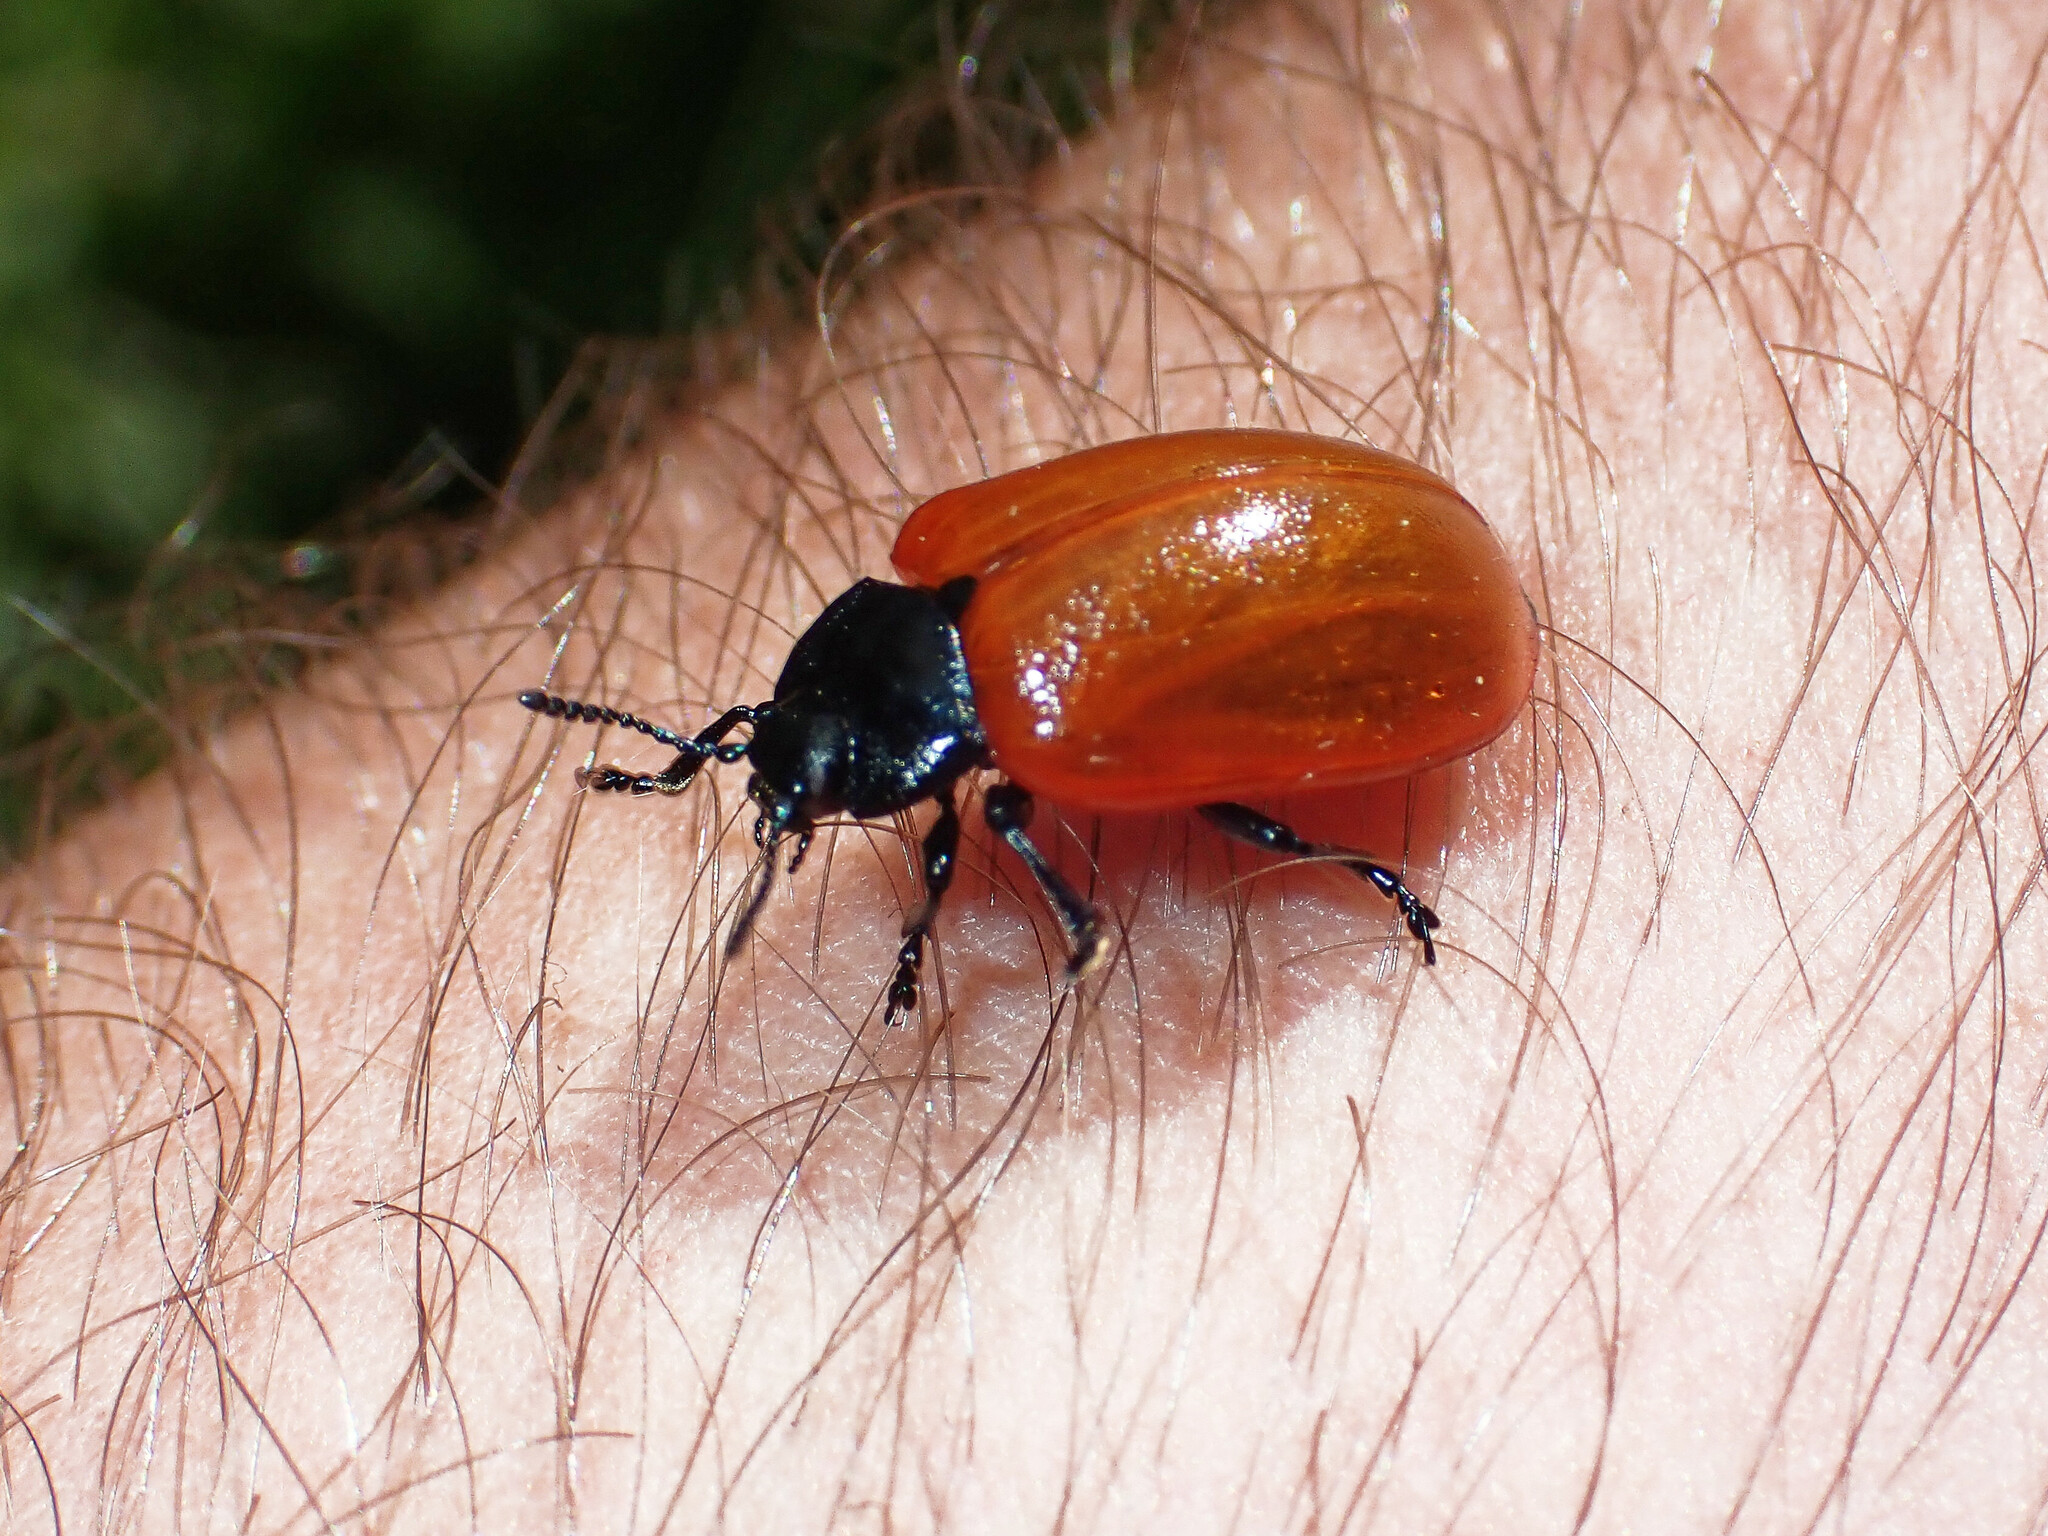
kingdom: Animalia
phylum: Arthropoda
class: Insecta
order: Coleoptera
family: Chrysomelidae
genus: Chrysomela
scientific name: Chrysomela populi
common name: Red poplar leaf beetle
